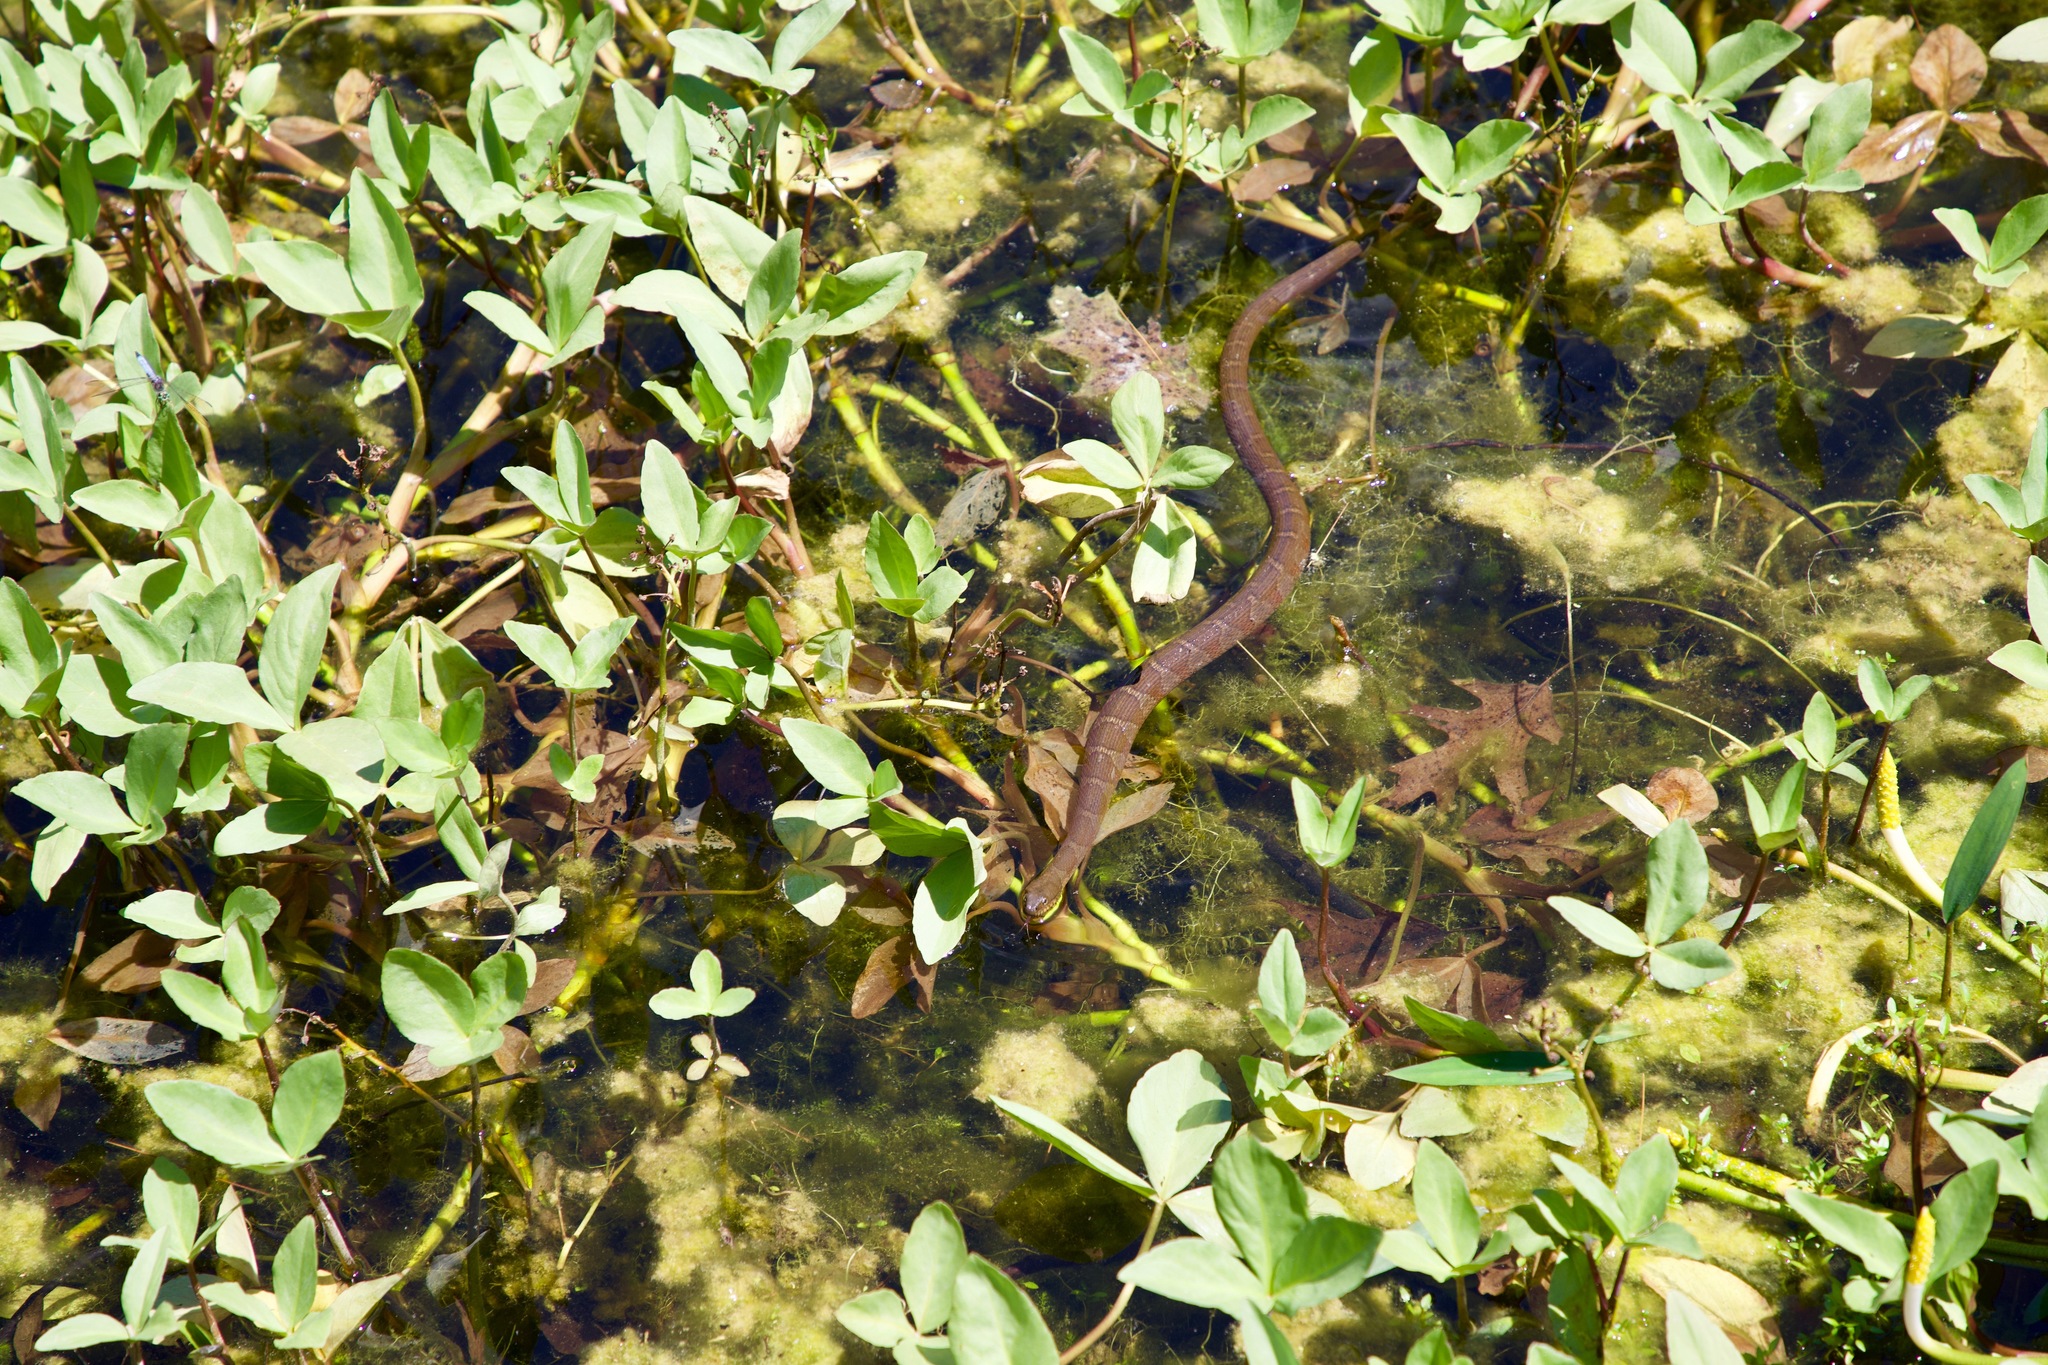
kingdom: Animalia
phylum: Chordata
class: Squamata
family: Colubridae
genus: Nerodia
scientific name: Nerodia sipedon
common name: Northern water snake
